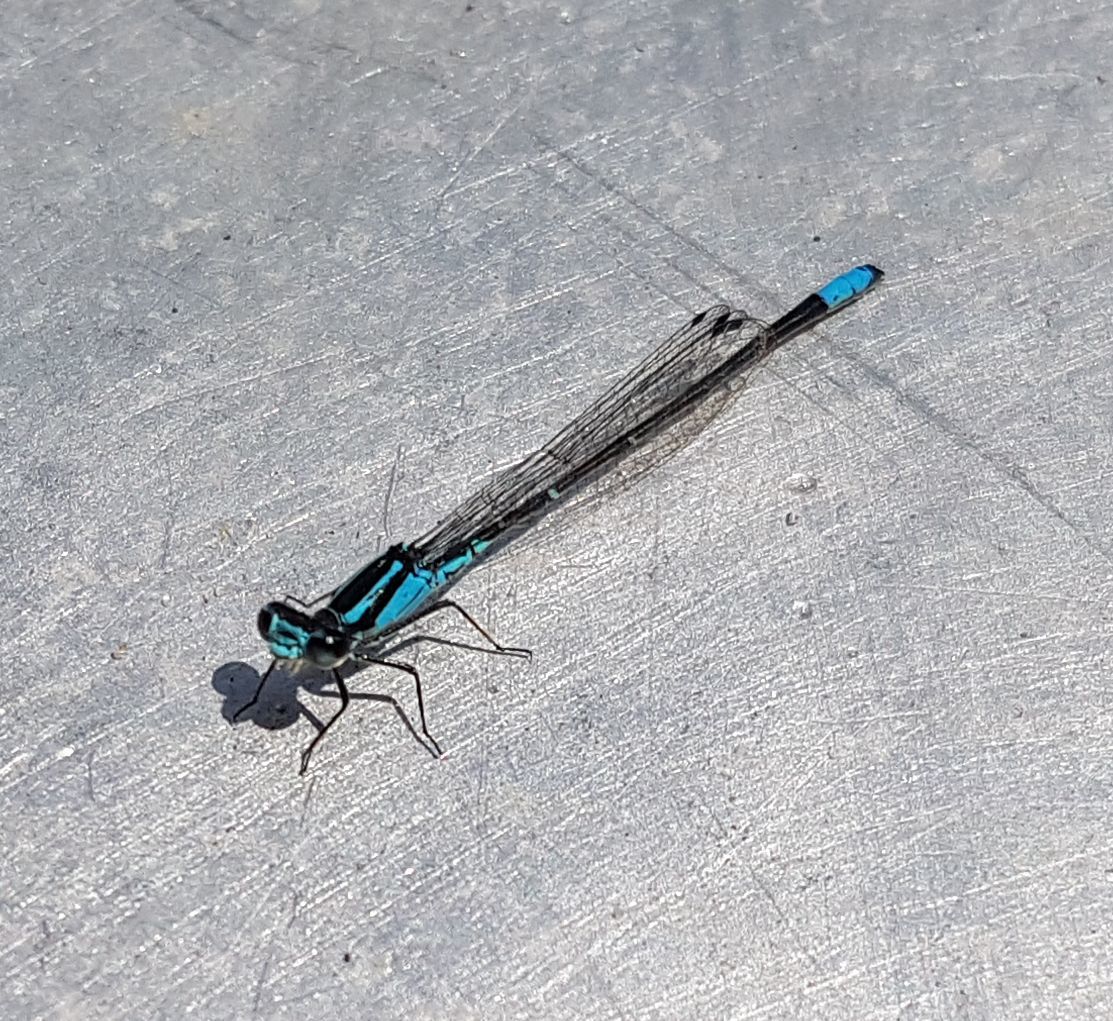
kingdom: Animalia
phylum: Arthropoda
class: Insecta
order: Odonata
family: Coenagrionidae
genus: Enallagma
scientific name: Enallagma geminatum
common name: Skimming bluet
